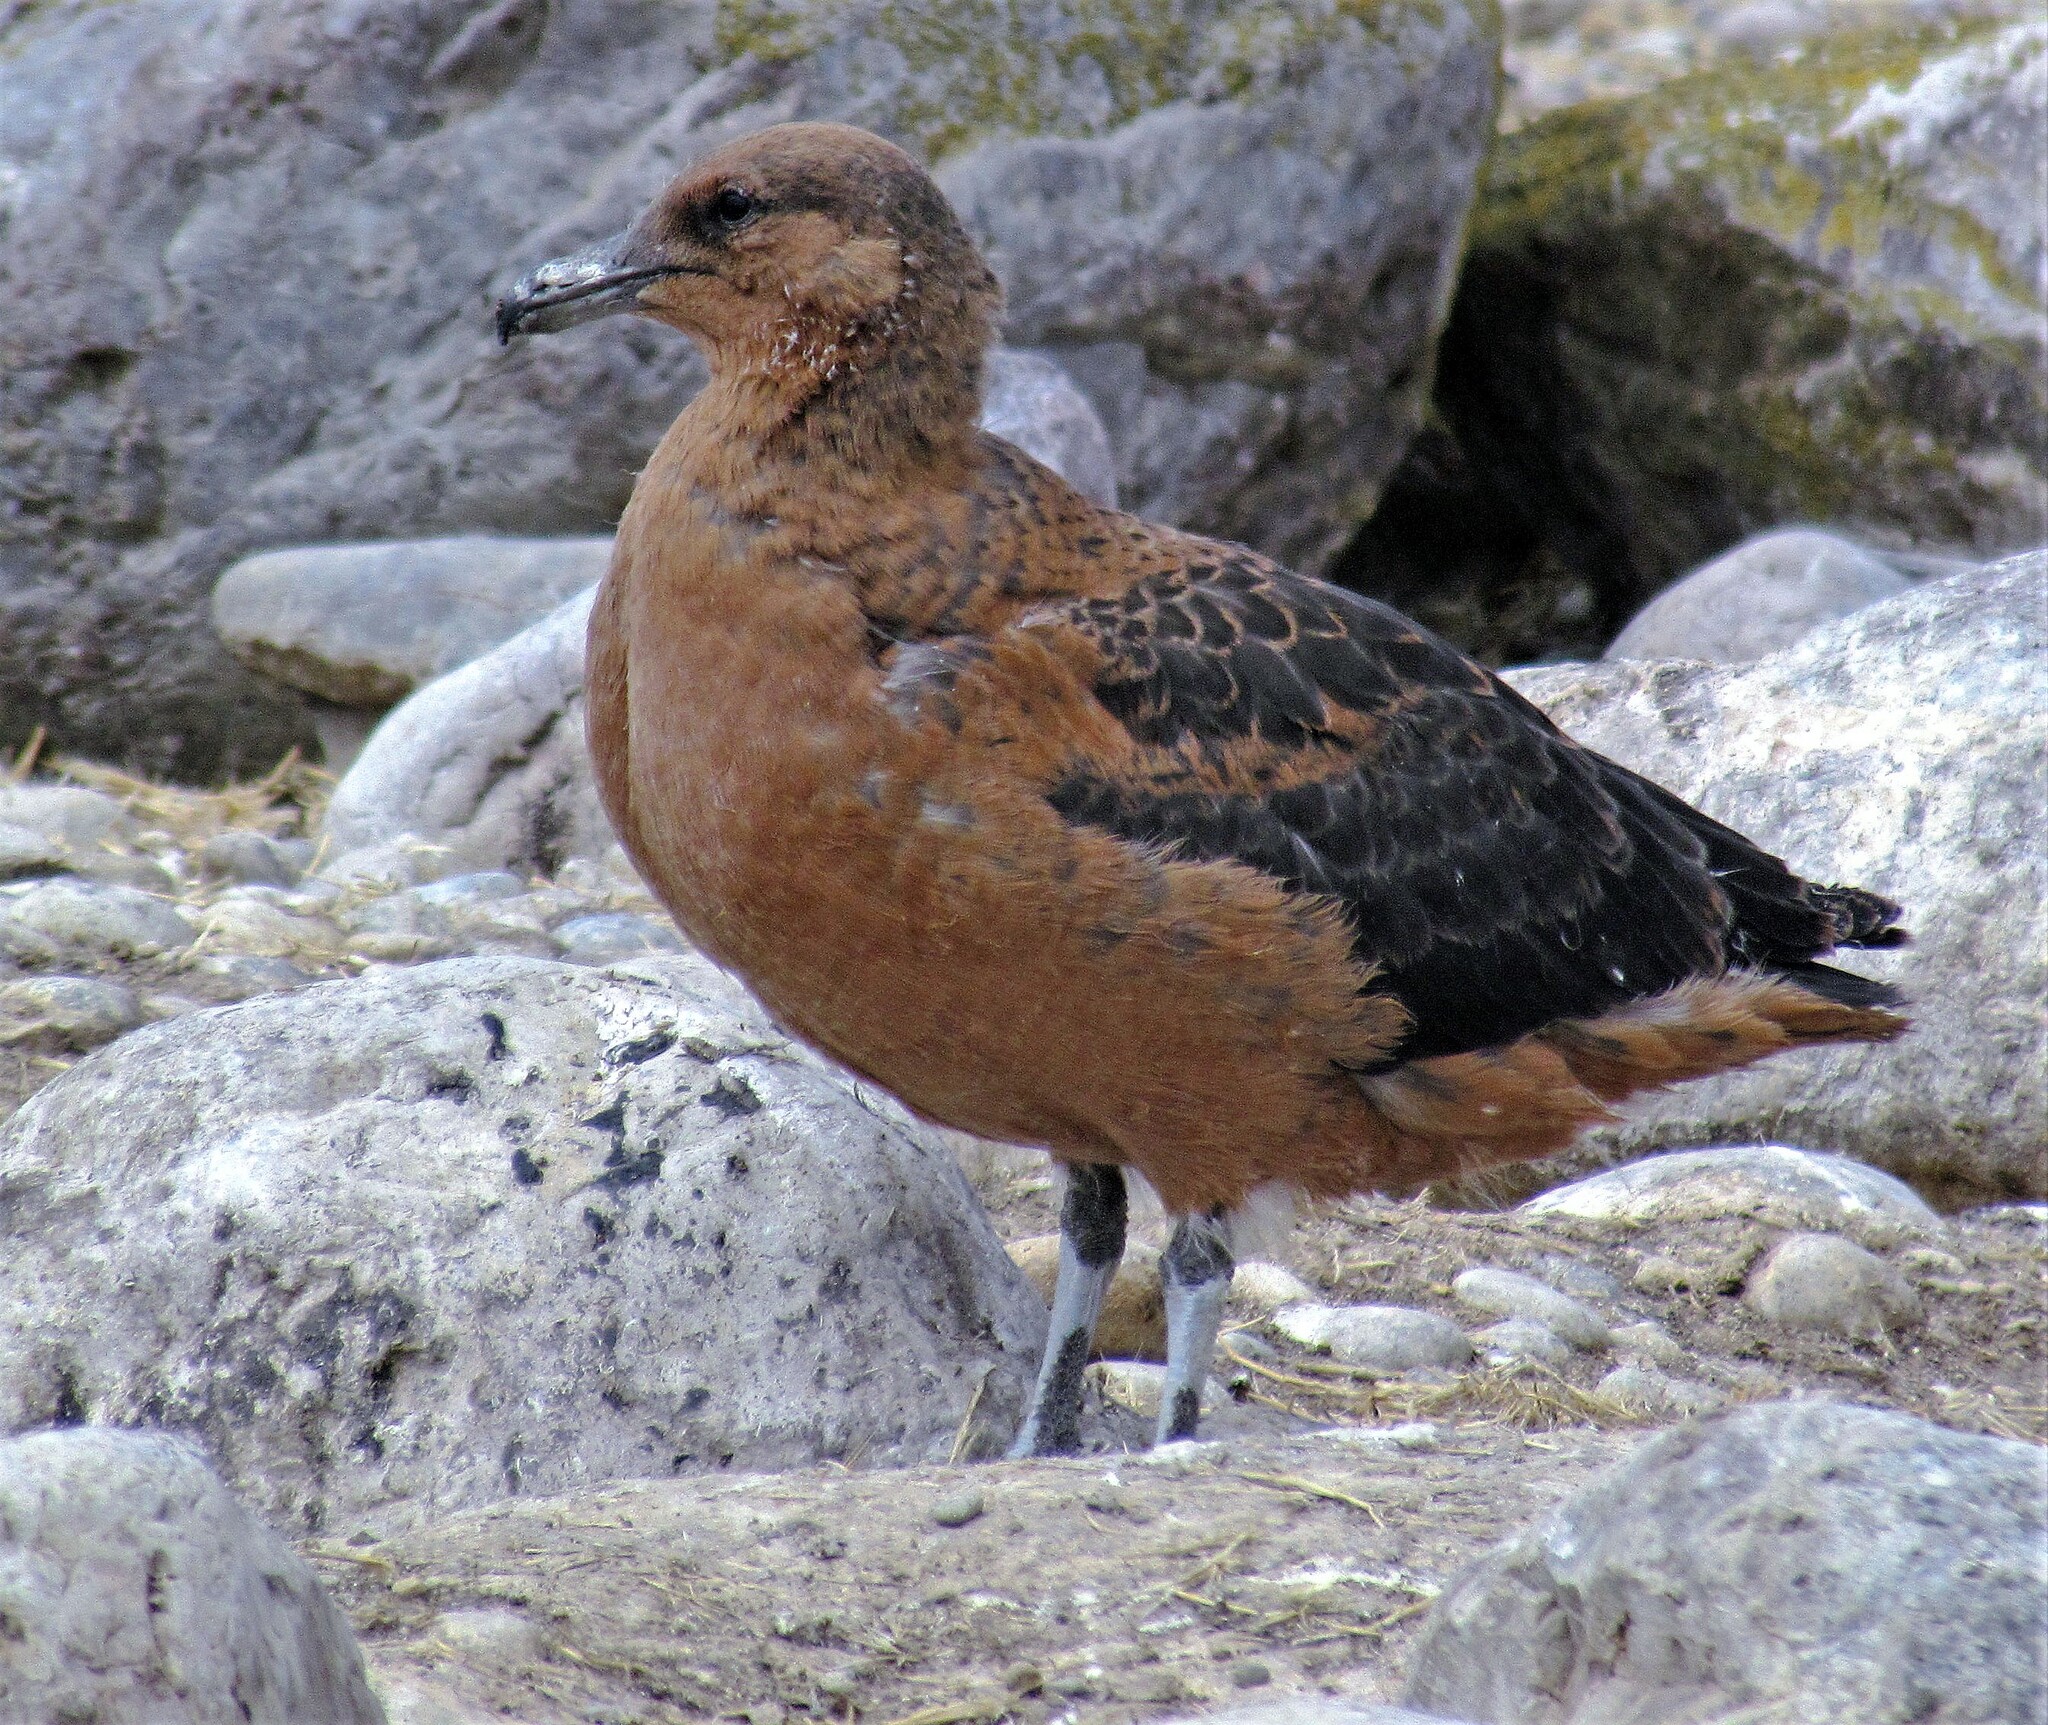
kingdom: Animalia
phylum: Chordata
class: Aves
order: Charadriiformes
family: Stercorariidae
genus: Stercorarius
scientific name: Stercorarius chilensis
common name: Chilean skua
